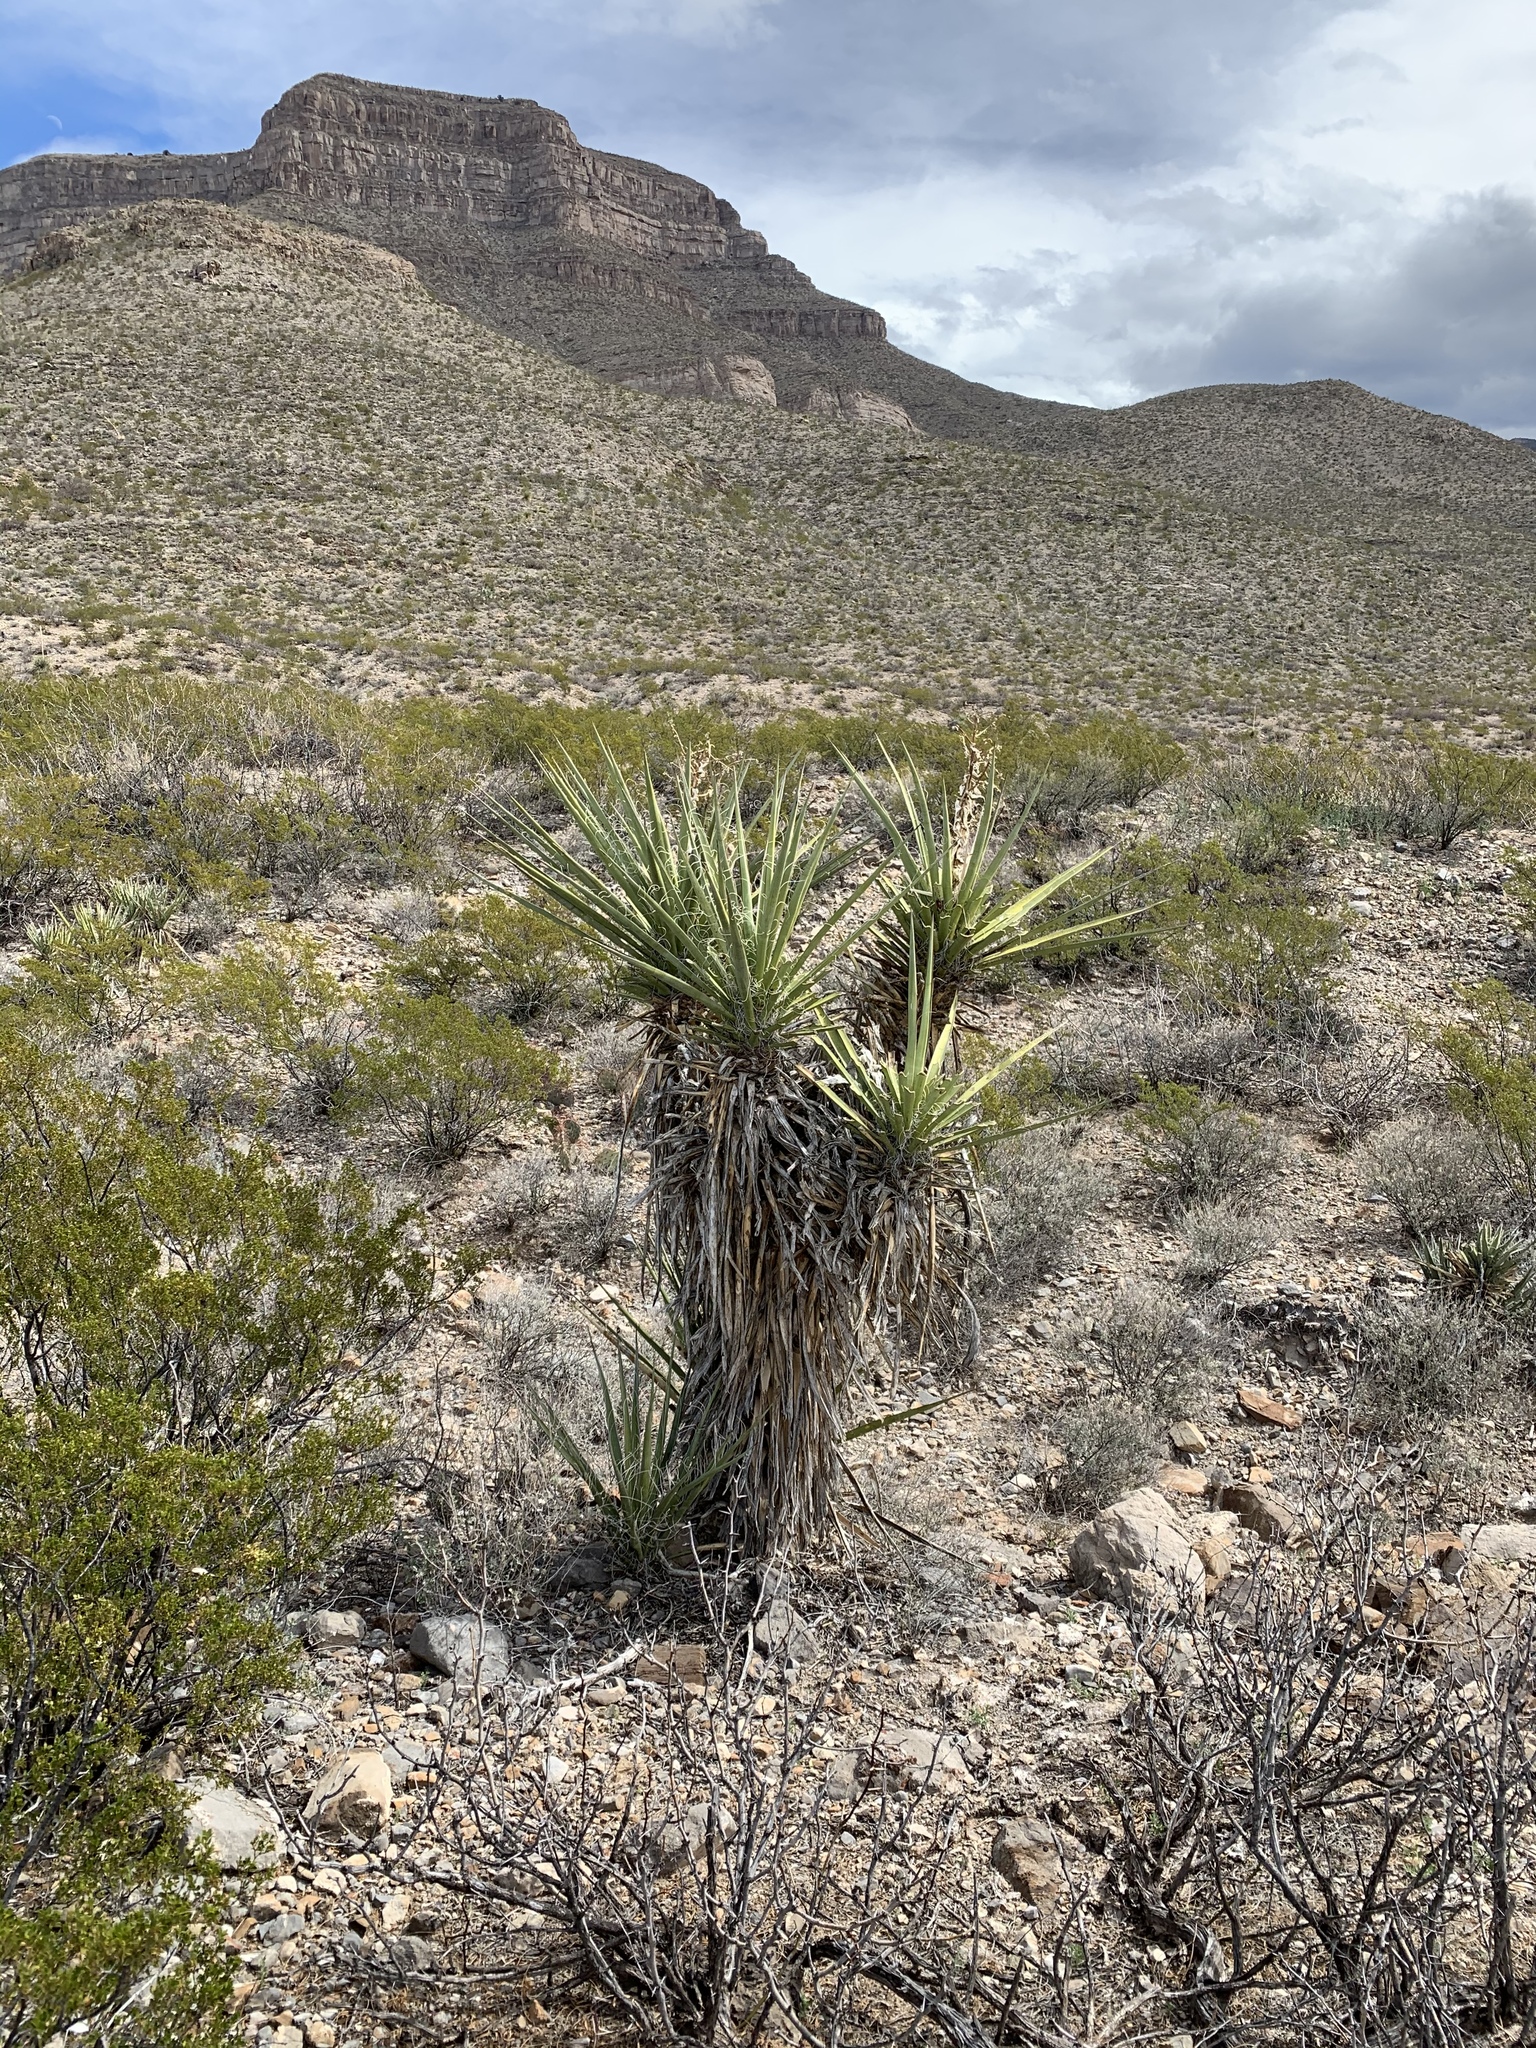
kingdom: Plantae
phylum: Tracheophyta
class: Liliopsida
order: Asparagales
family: Asparagaceae
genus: Yucca
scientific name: Yucca treculiana
